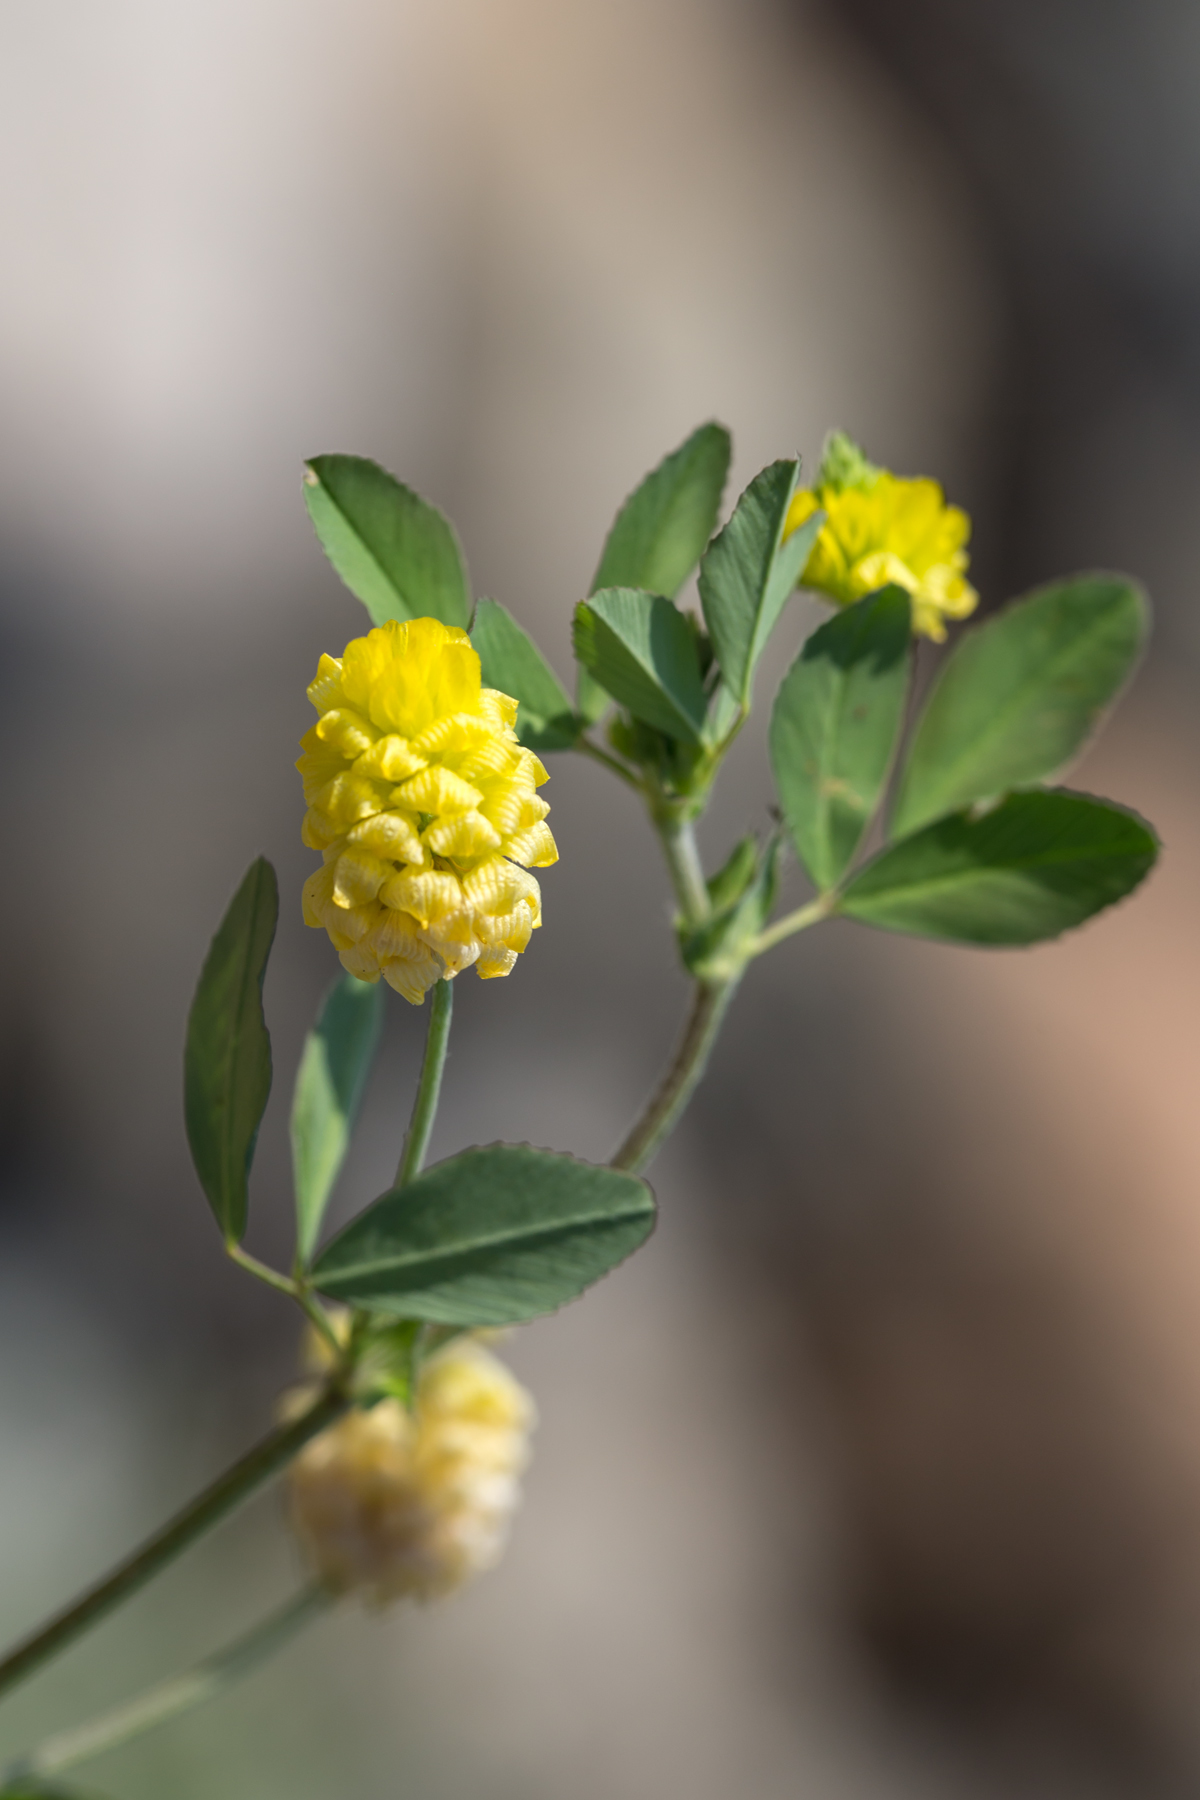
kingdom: Plantae
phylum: Tracheophyta
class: Magnoliopsida
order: Fabales
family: Fabaceae
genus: Trifolium
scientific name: Trifolium campestre
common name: Field clover
